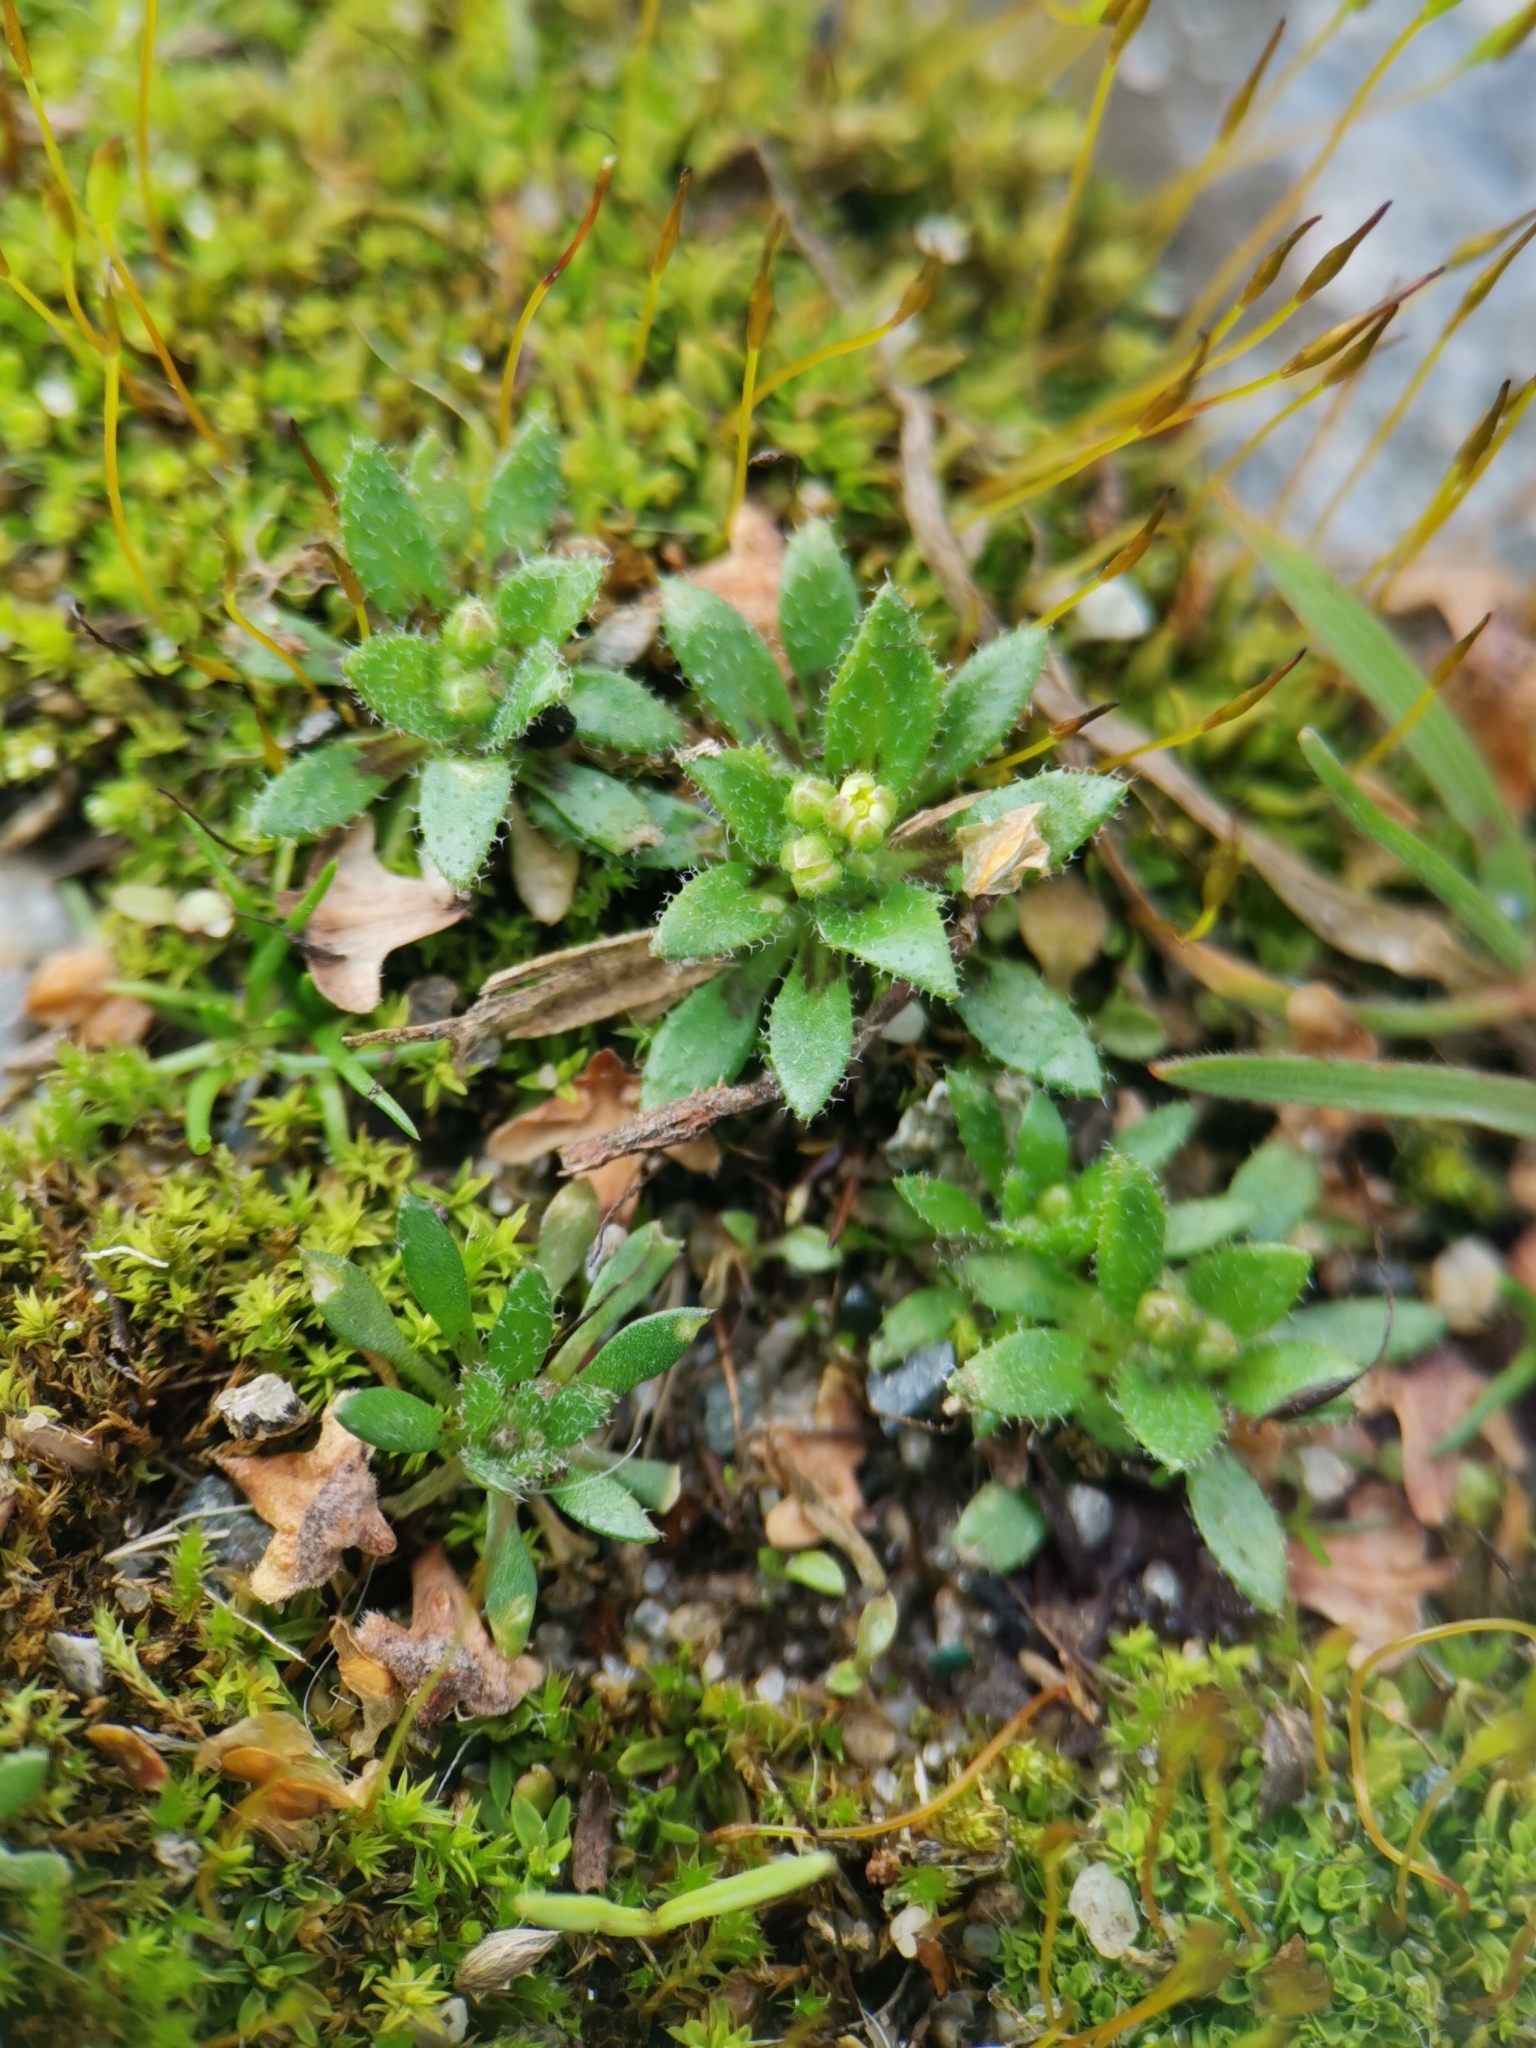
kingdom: Plantae
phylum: Tracheophyta
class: Magnoliopsida
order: Brassicales
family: Brassicaceae
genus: Draba
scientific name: Draba verna
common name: Spring draba
